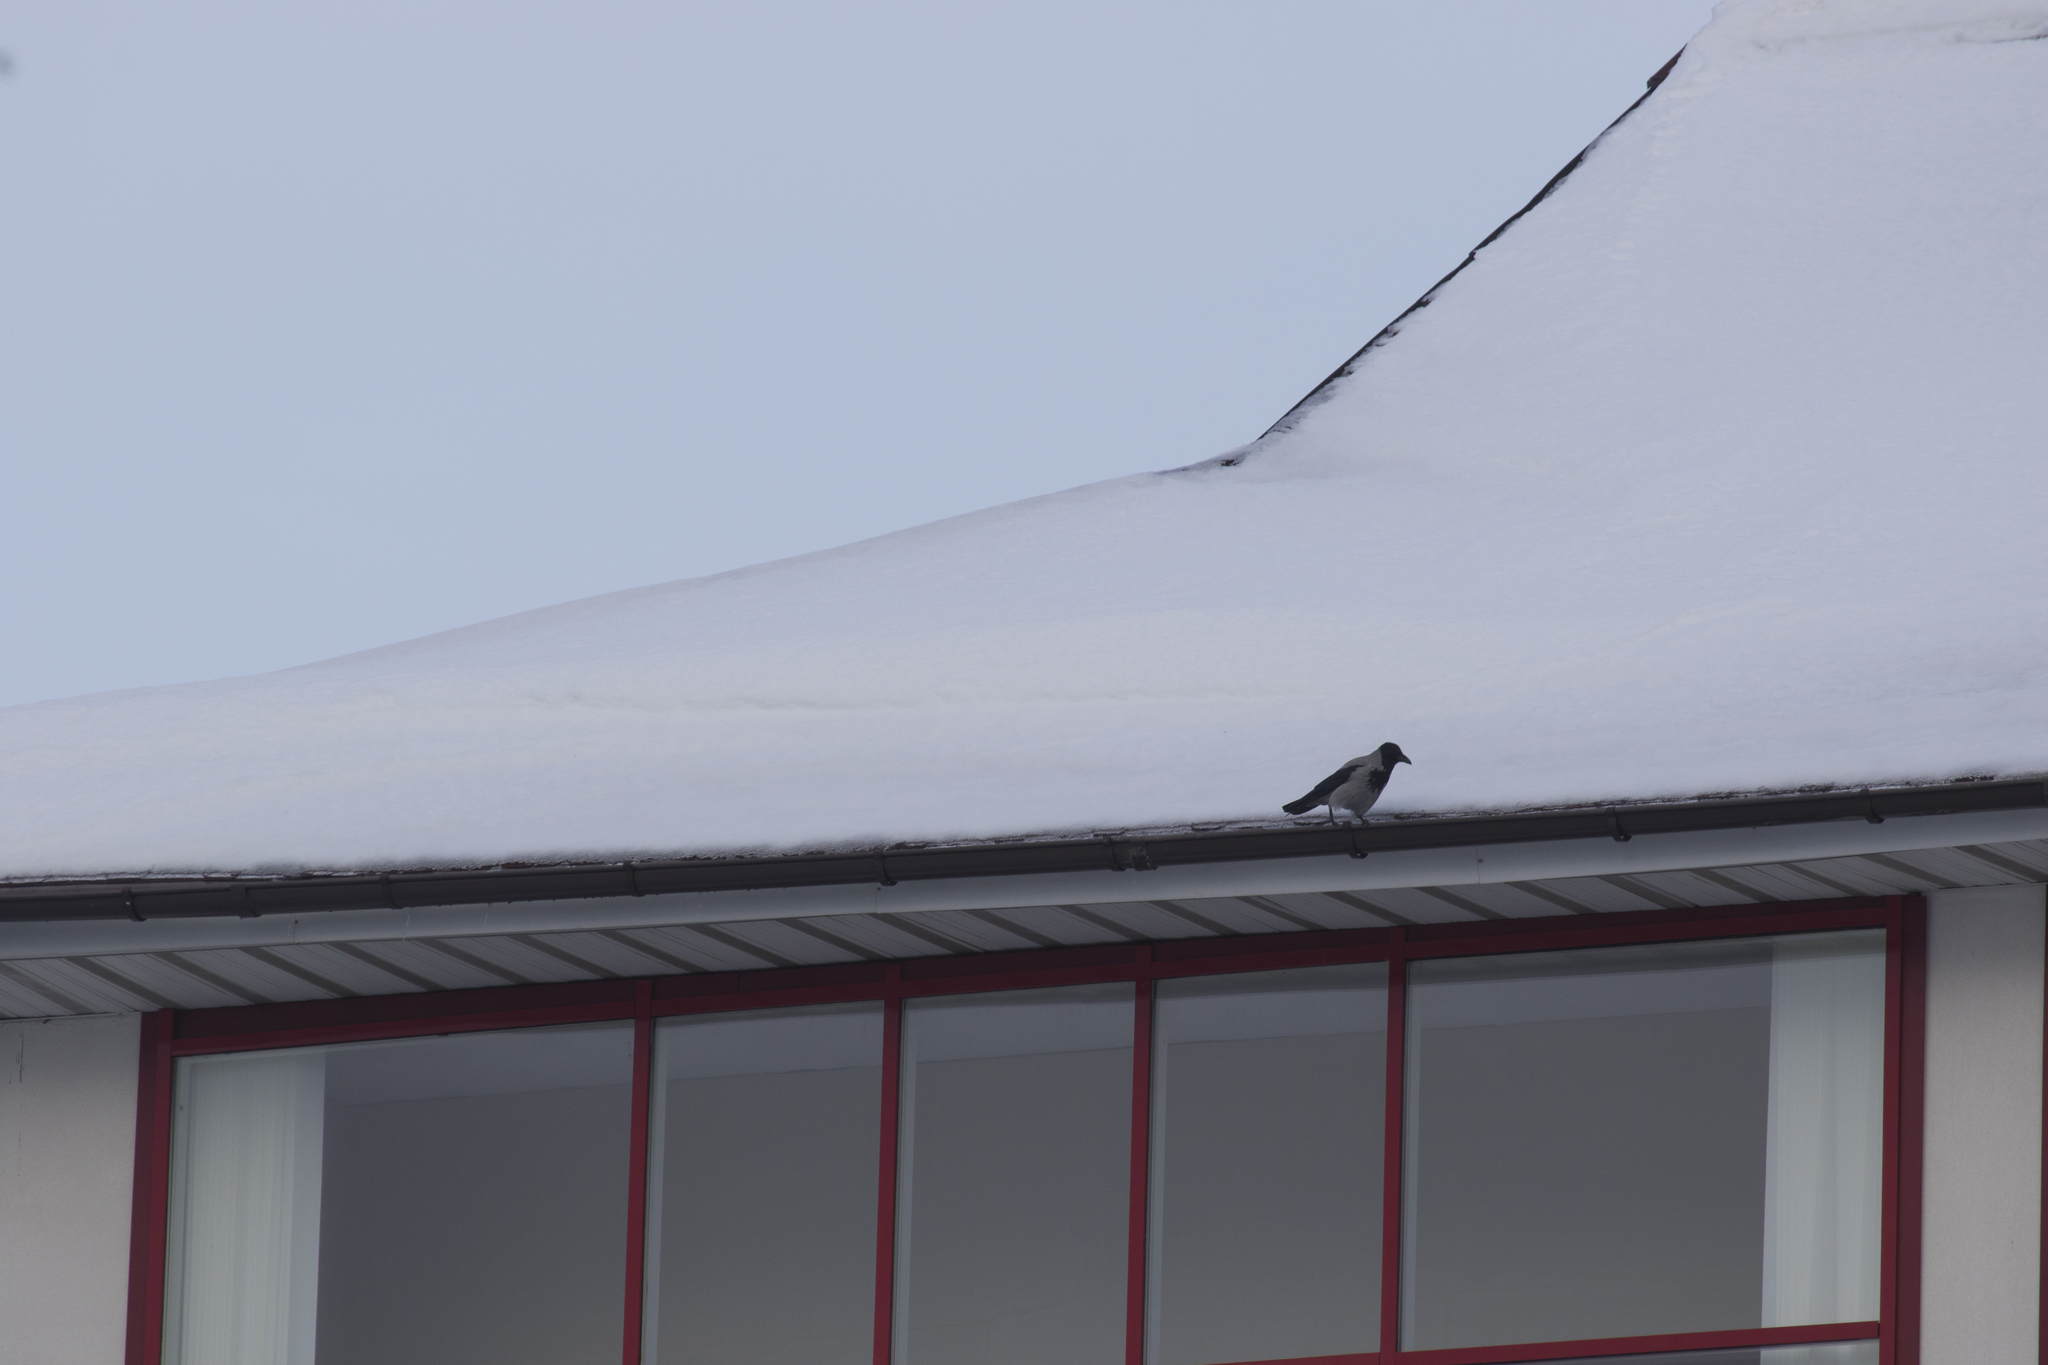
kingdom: Animalia
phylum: Chordata
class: Aves
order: Passeriformes
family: Corvidae
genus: Corvus
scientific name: Corvus cornix
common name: Hooded crow
